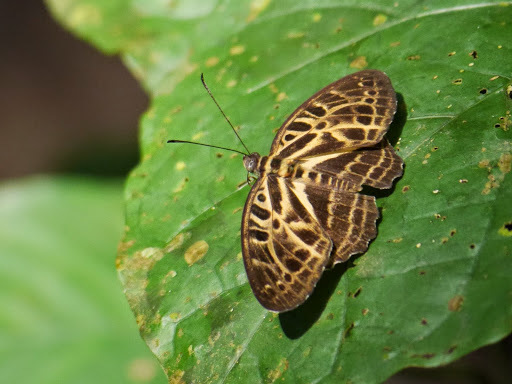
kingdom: Animalia
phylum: Arthropoda
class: Insecta
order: Lepidoptera
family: Nymphalidae
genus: Catuna
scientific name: Catuna
